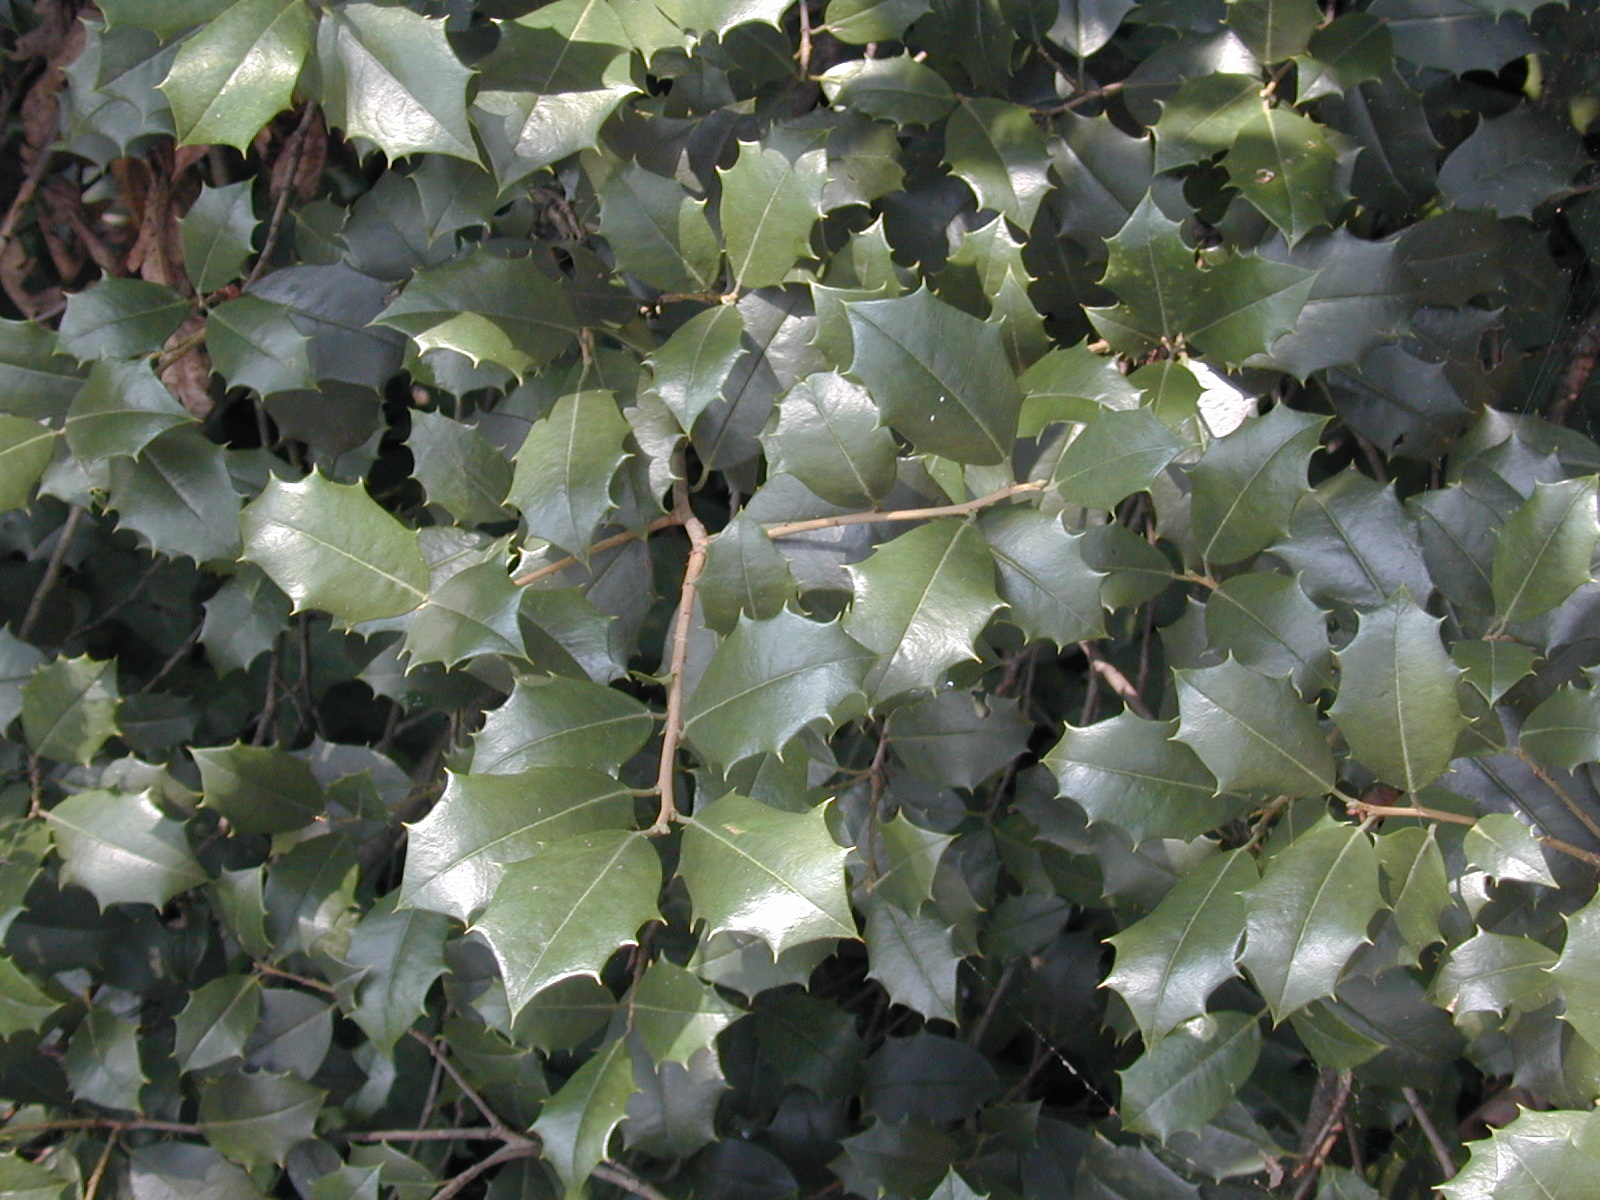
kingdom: Plantae
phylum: Tracheophyta
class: Magnoliopsida
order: Aquifoliales
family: Aquifoliaceae
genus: Ilex
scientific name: Ilex opaca
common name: American holly
